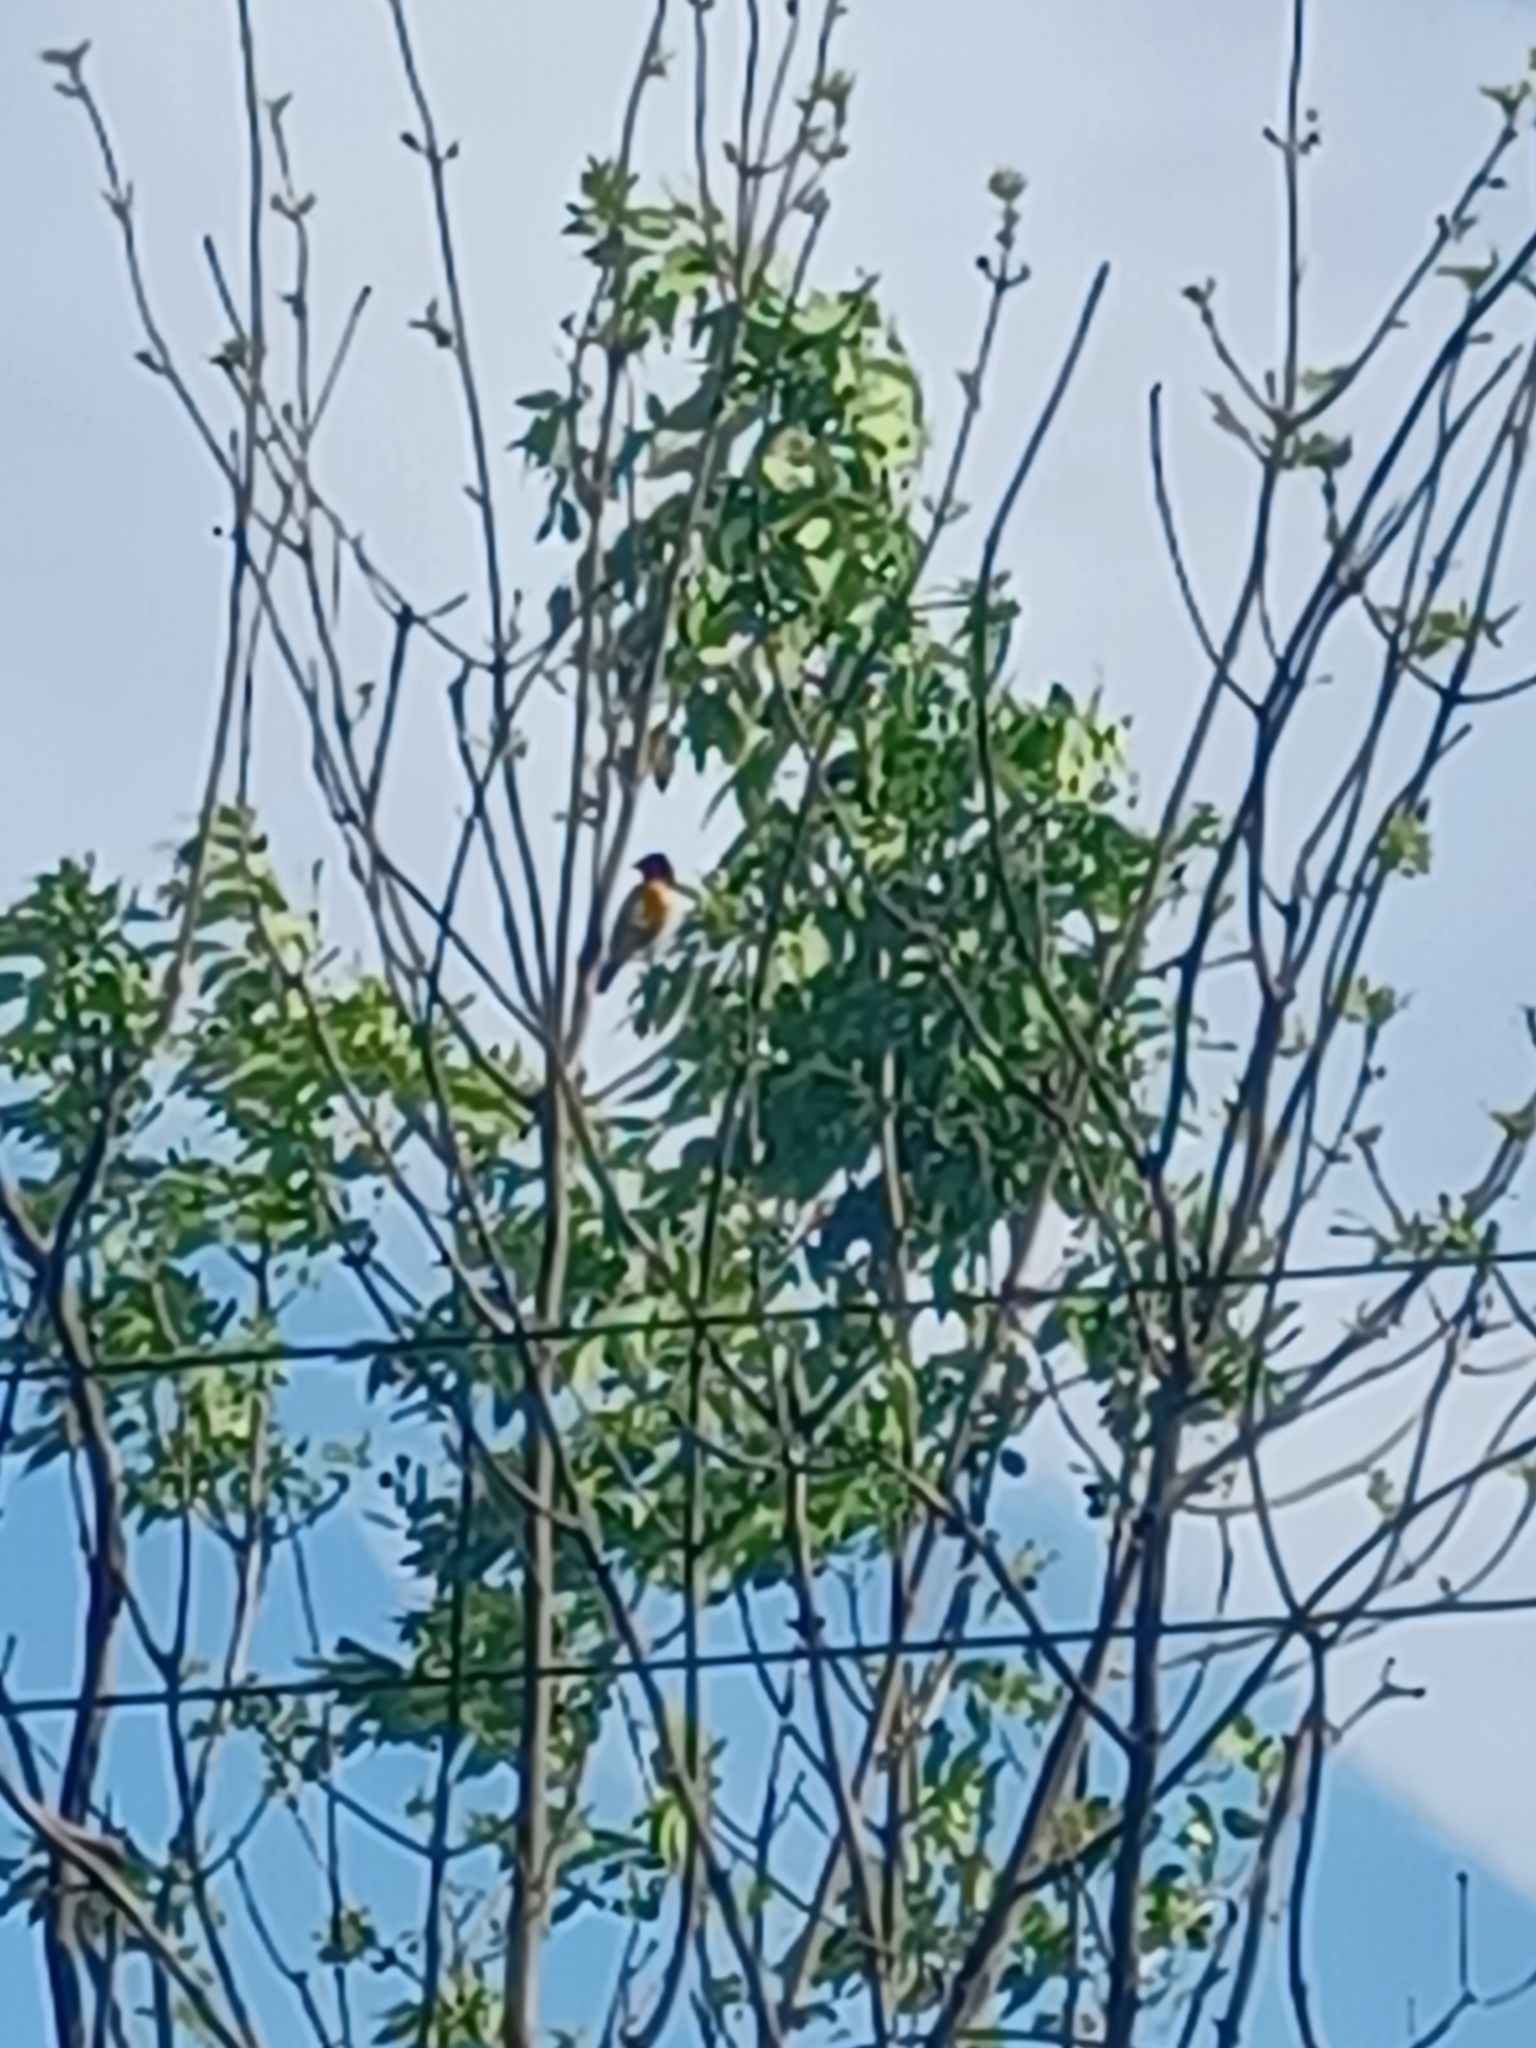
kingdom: Animalia
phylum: Chordata
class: Aves
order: Passeriformes
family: Icteridae
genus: Icterus
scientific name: Icterus galbula
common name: Baltimore oriole
